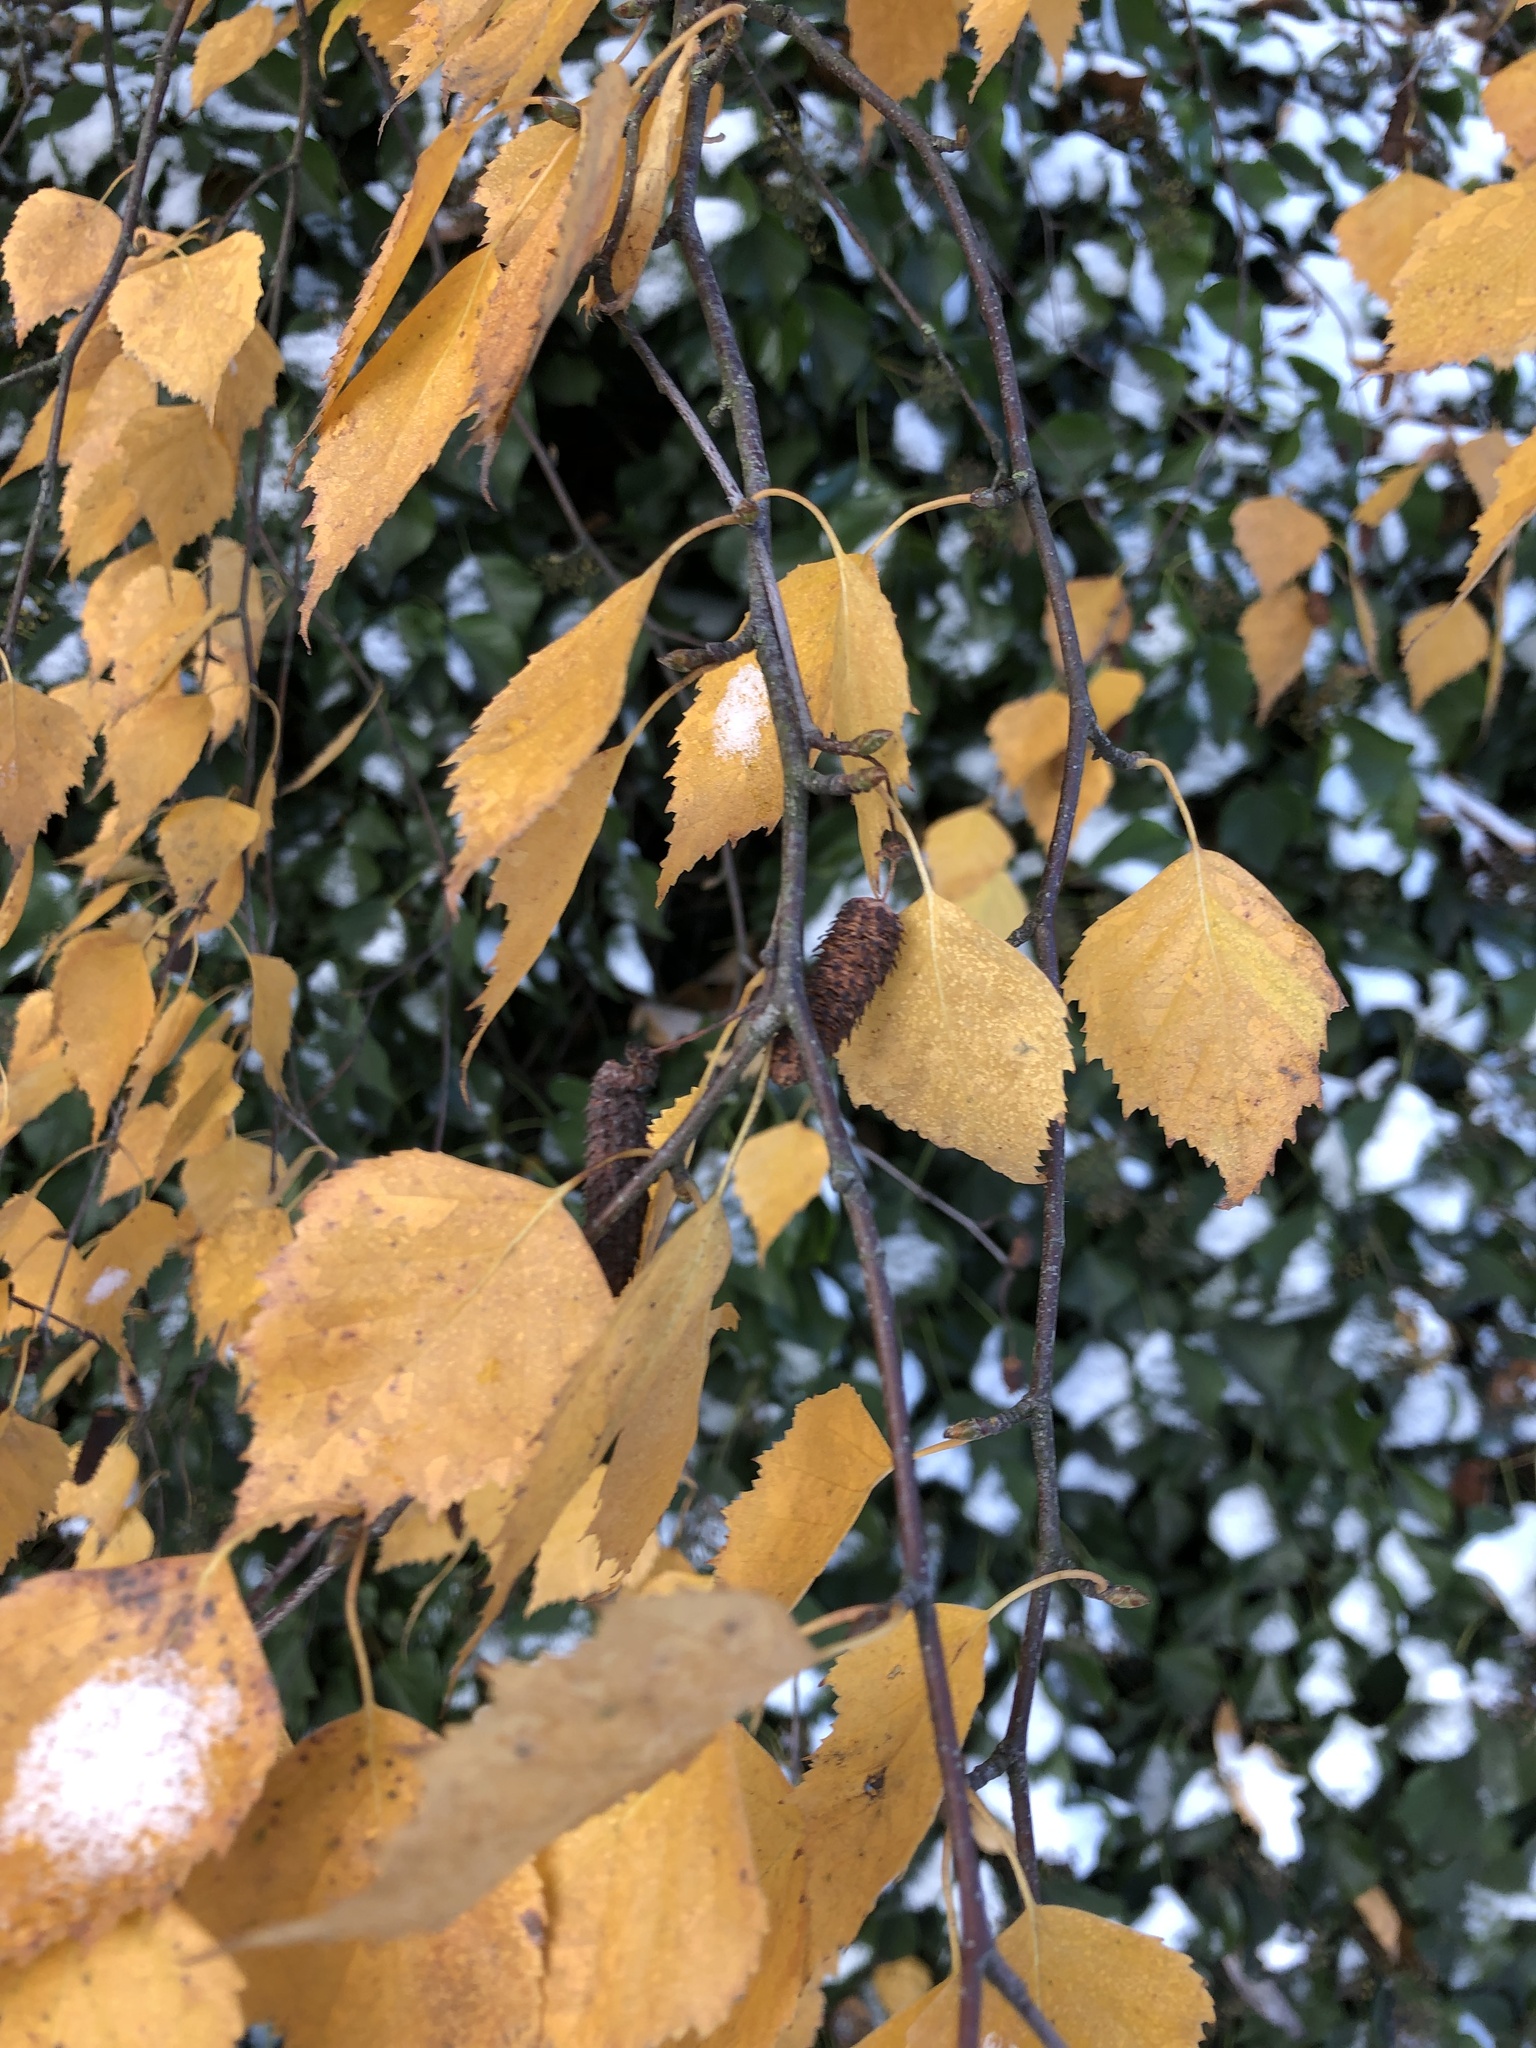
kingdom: Plantae
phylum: Tracheophyta
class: Magnoliopsida
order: Fagales
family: Betulaceae
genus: Betula
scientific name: Betula pendula
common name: Silver birch
